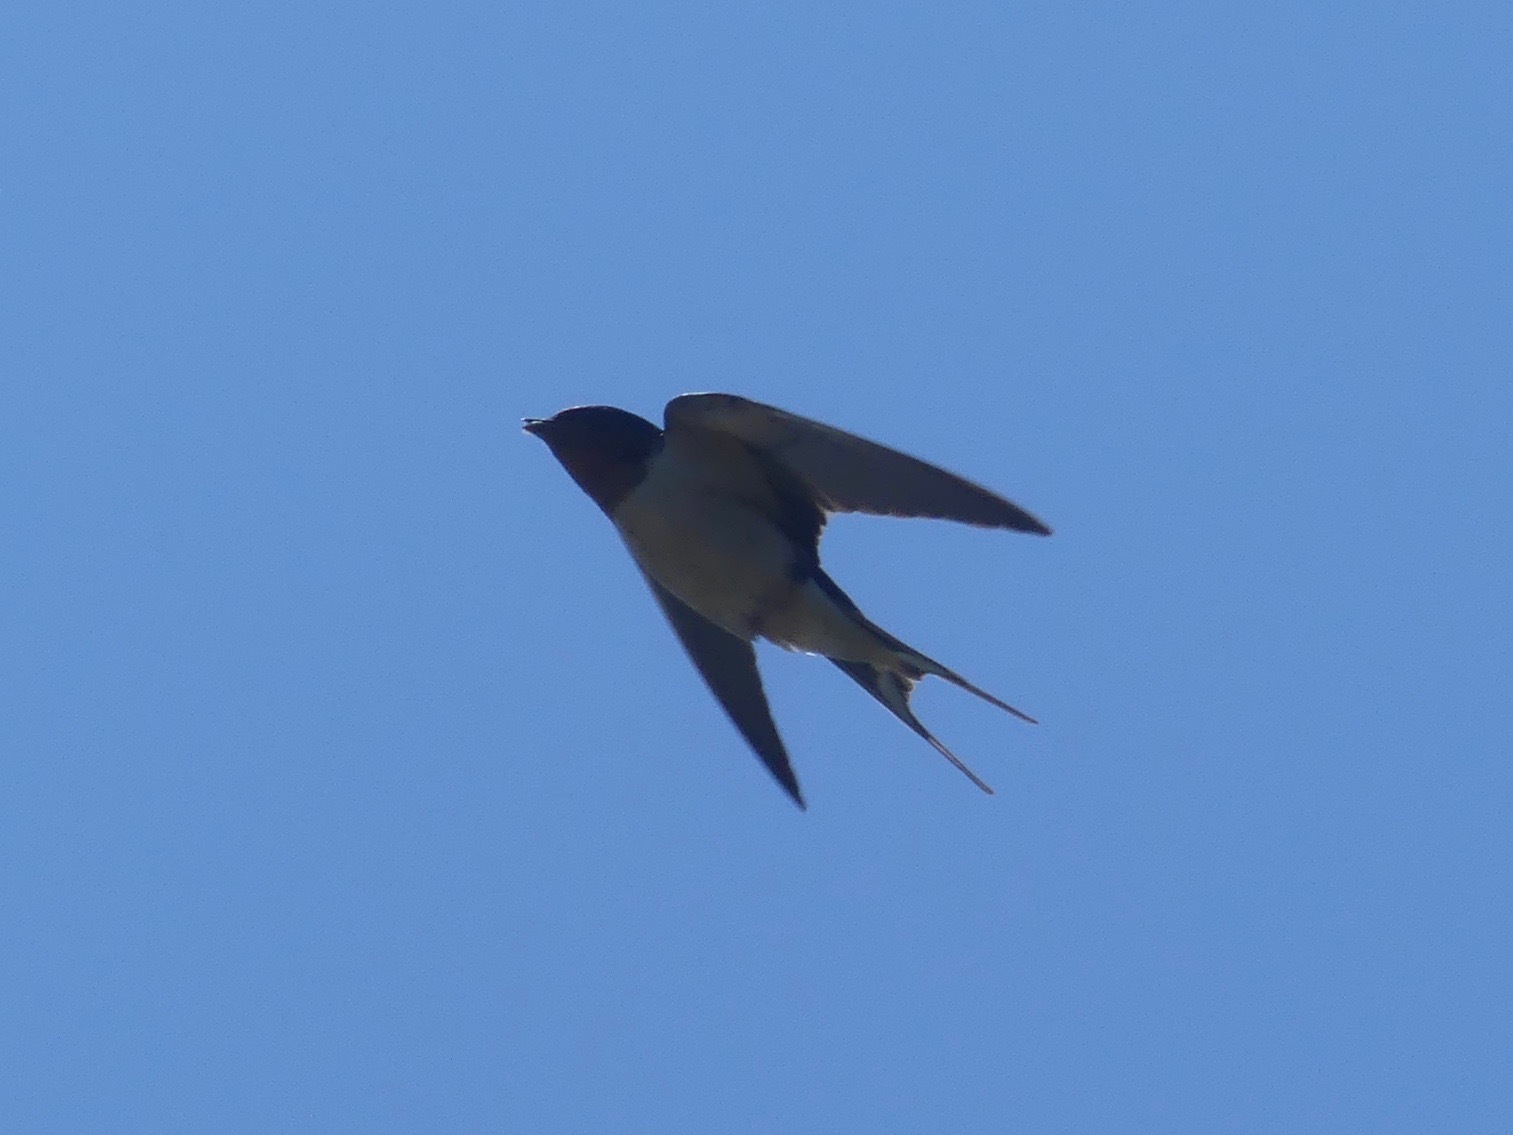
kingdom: Animalia
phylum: Chordata
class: Aves
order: Passeriformes
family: Hirundinidae
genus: Hirundo
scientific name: Hirundo rustica
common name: Barn swallow
